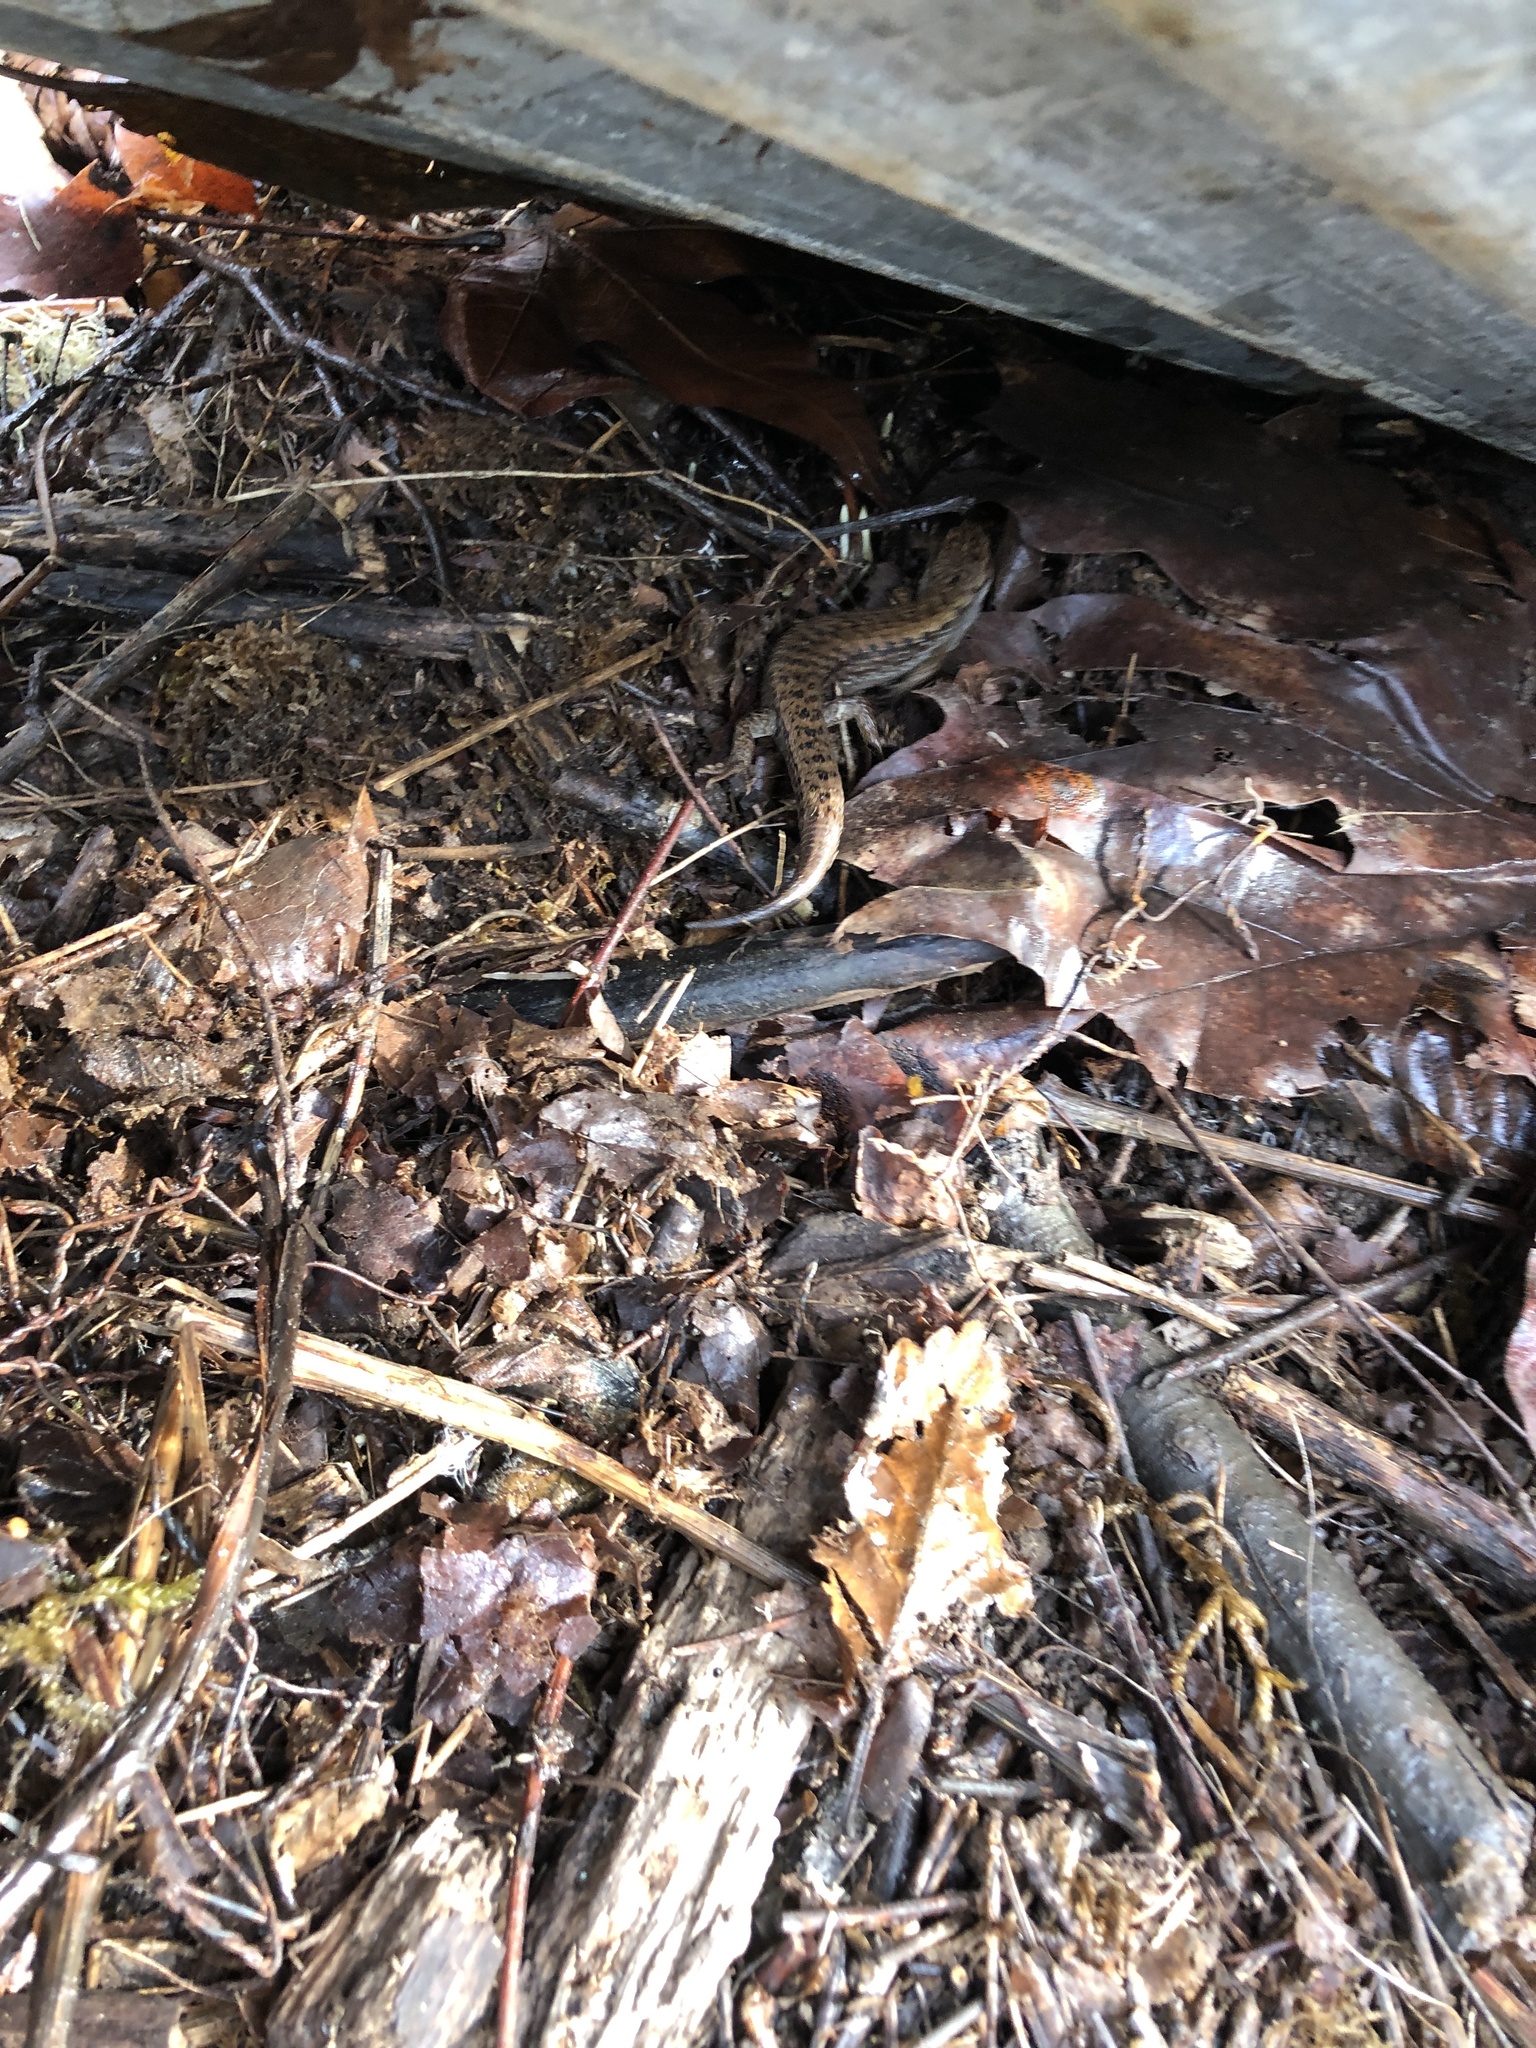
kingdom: Animalia
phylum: Chordata
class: Squamata
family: Anguidae
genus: Elgaria
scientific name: Elgaria coerulea
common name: Northern alligator lizard
